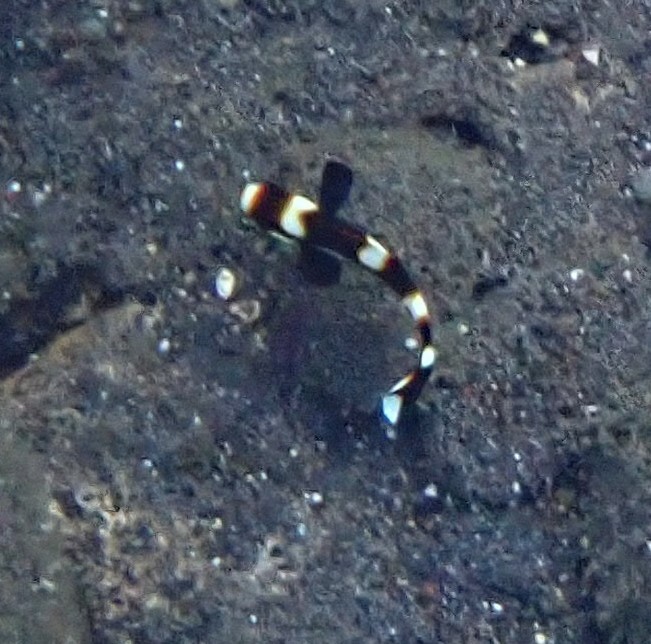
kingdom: Animalia
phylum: Chordata
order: Perciformes
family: Haemulidae
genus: Plectorhinchus
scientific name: Plectorhinchus vittatus
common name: Oriental sweetlips
